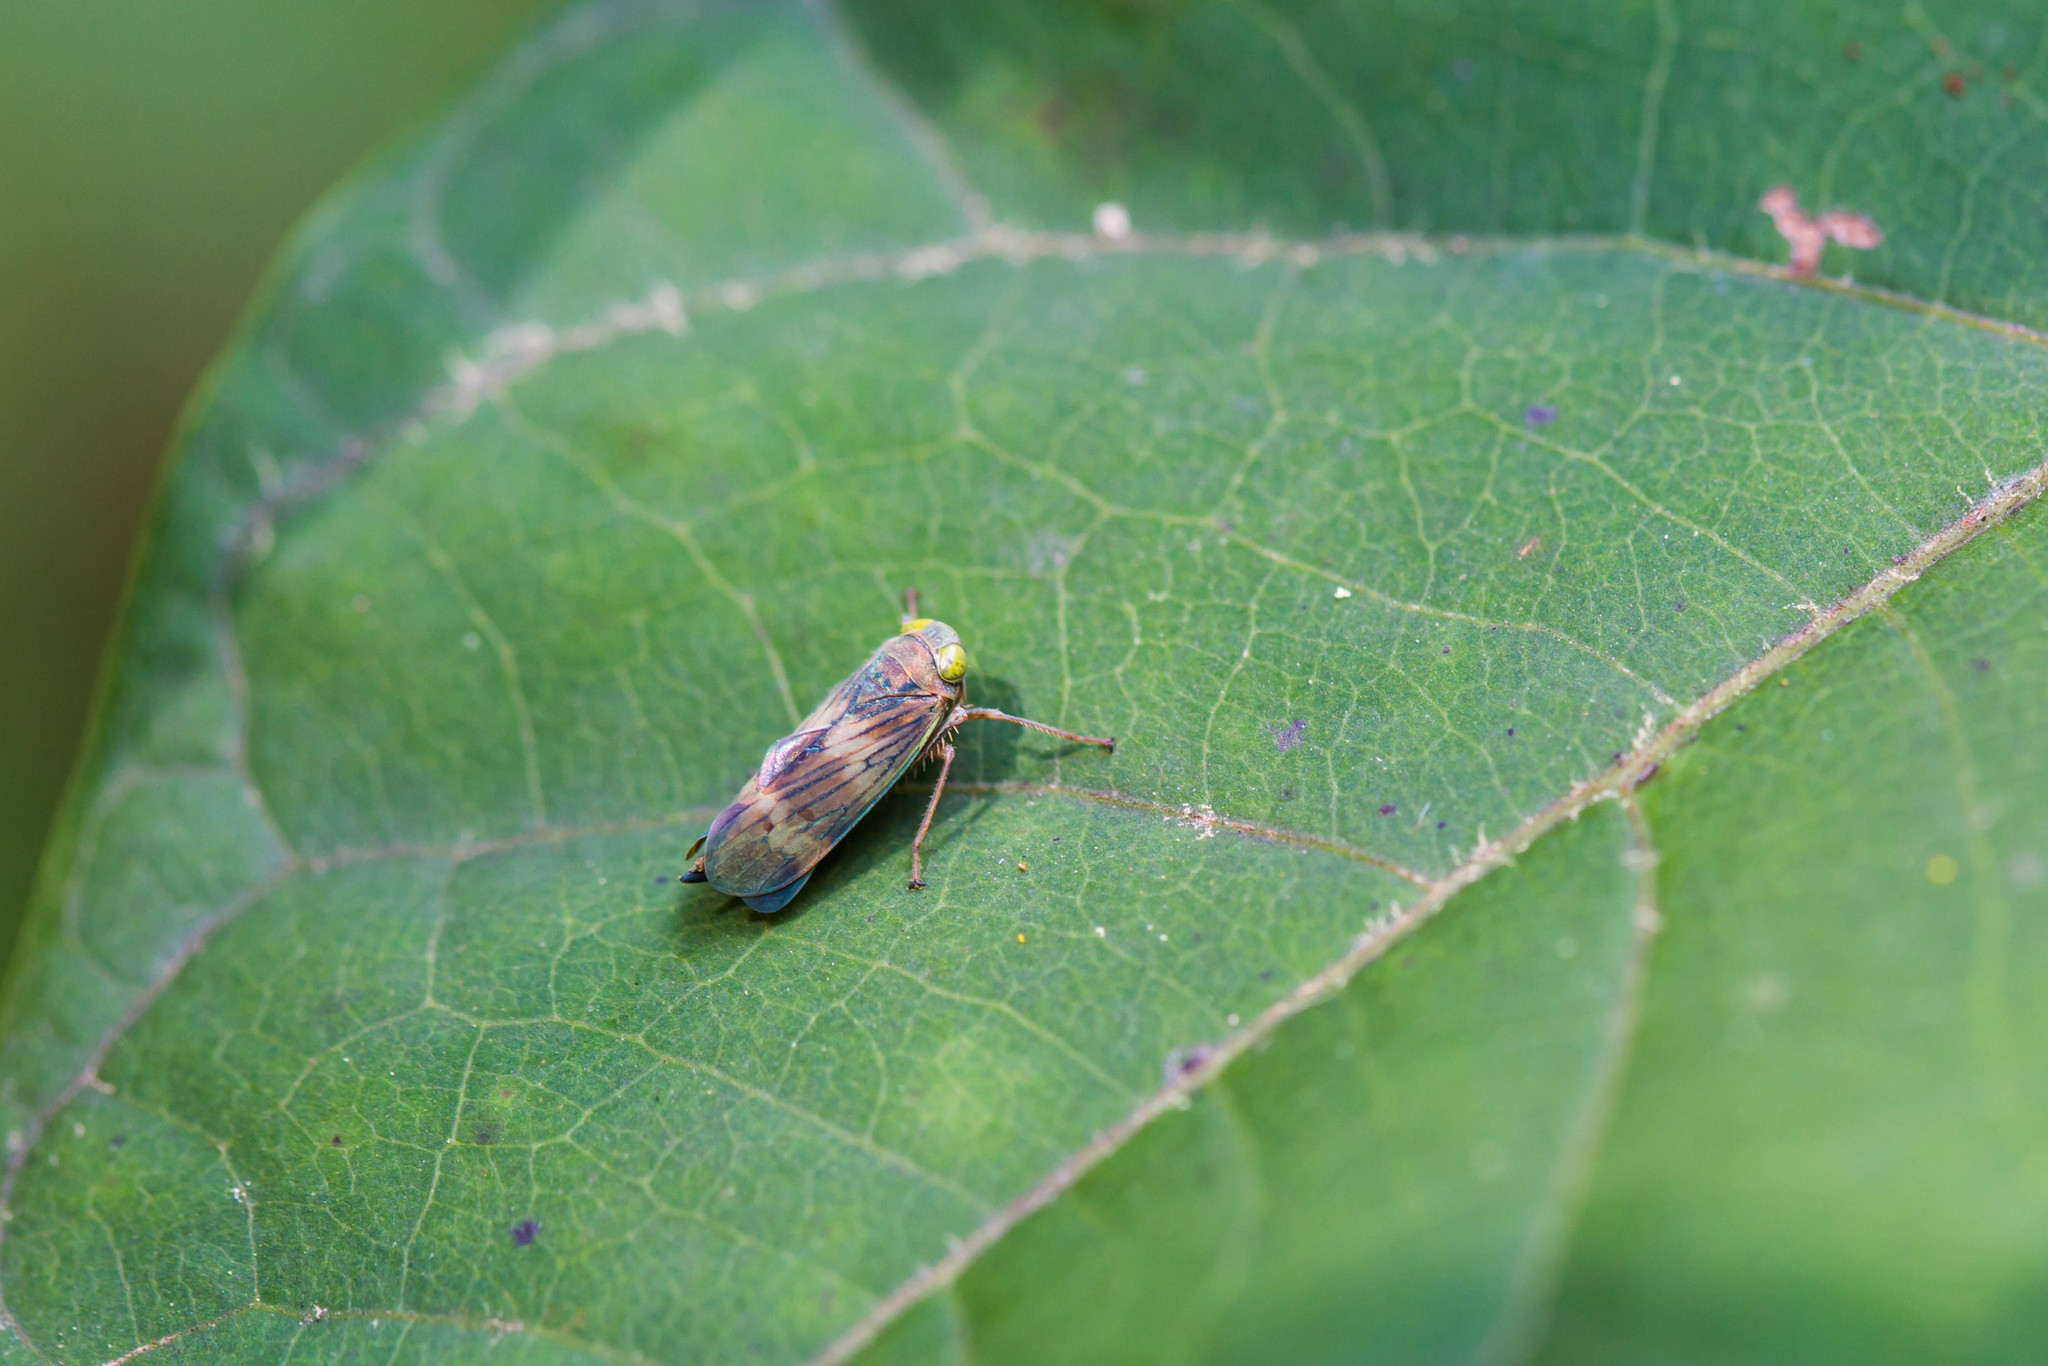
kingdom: Animalia
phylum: Arthropoda
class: Insecta
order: Hemiptera
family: Cicadellidae
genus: Jikradia
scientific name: Jikradia olitoria
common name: Coppery leafhopper
